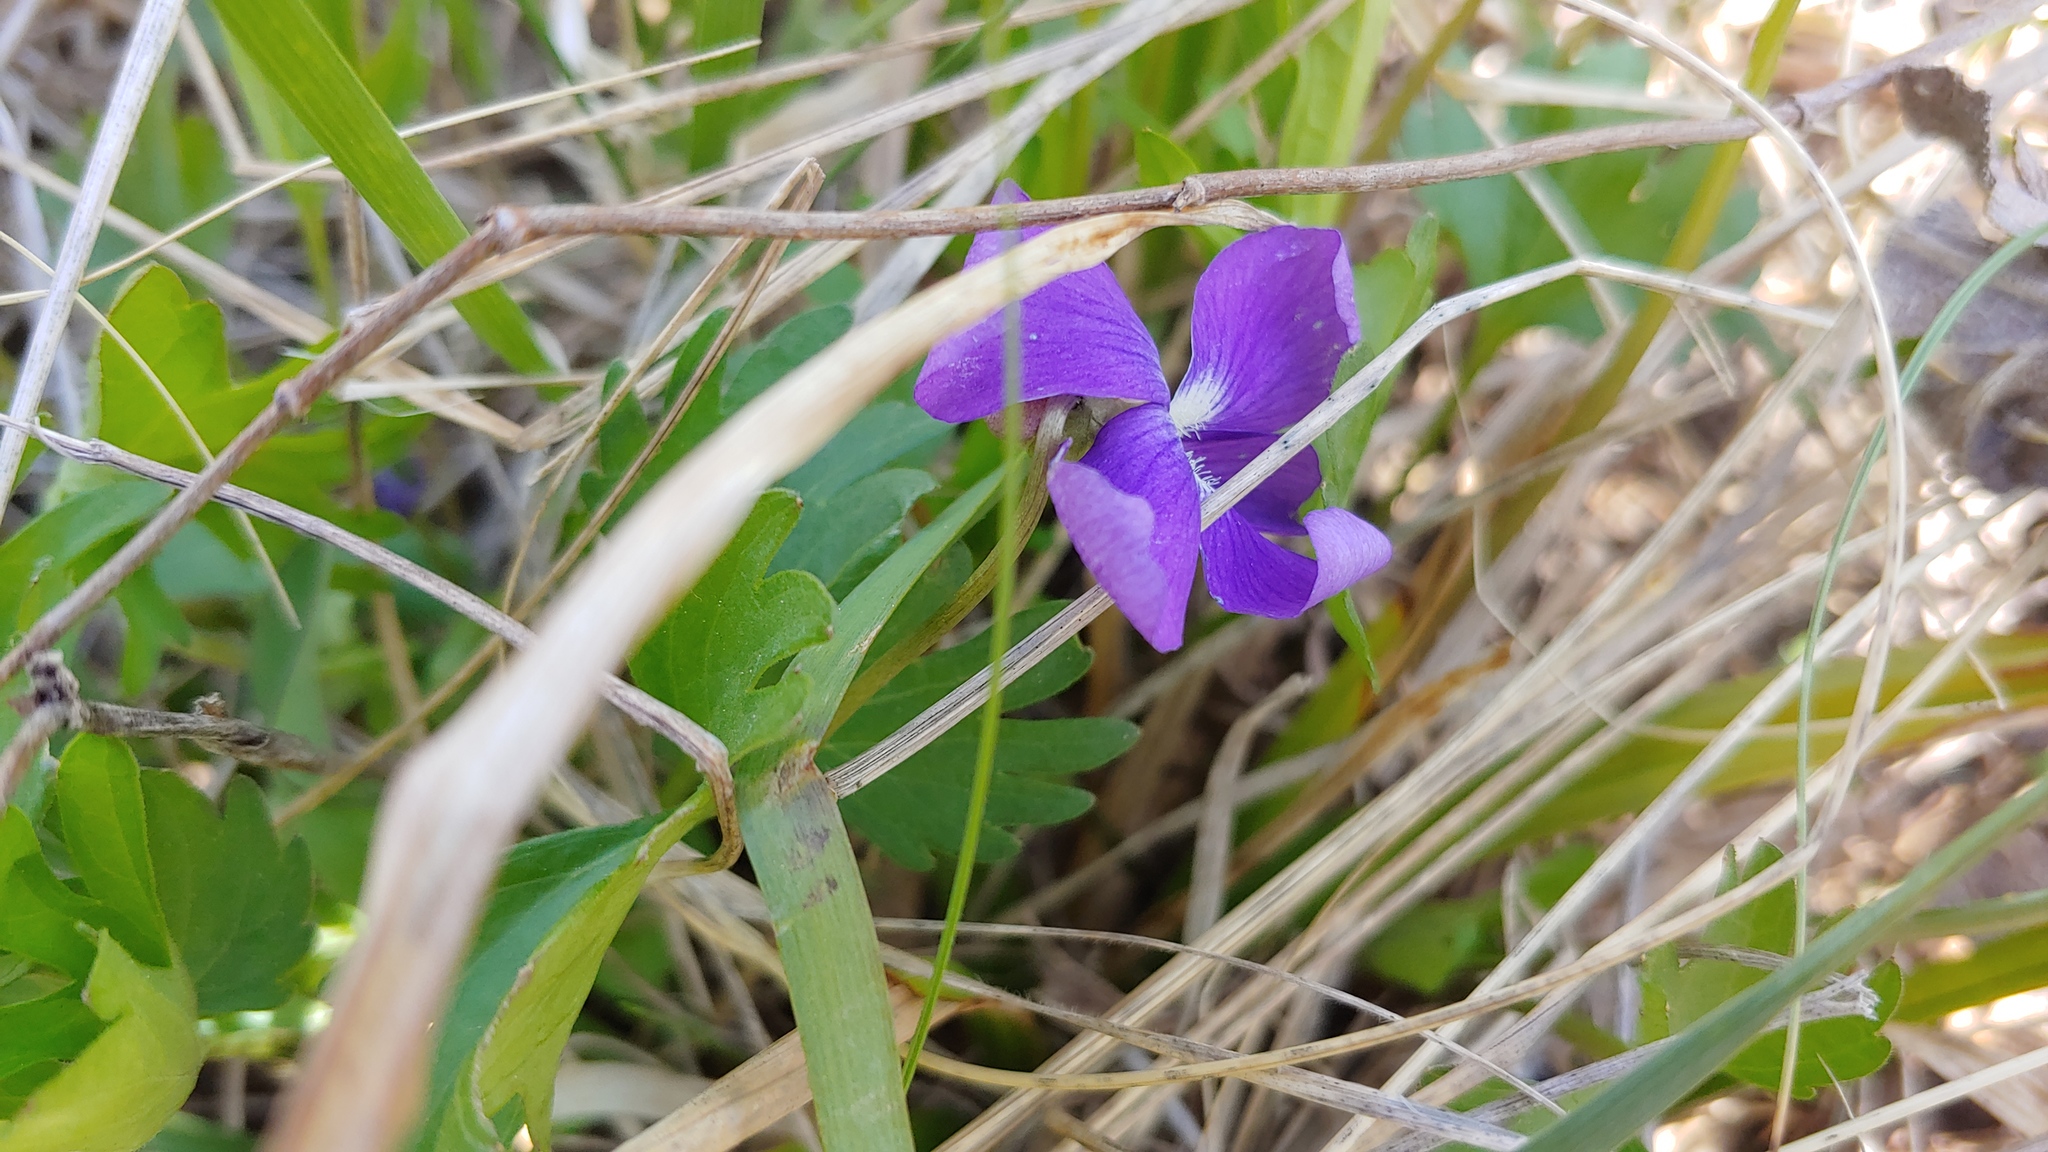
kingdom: Plantae
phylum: Tracheophyta
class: Magnoliopsida
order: Malpighiales
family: Violaceae
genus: Viola
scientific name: Viola pedatifida
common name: Prairie violet
